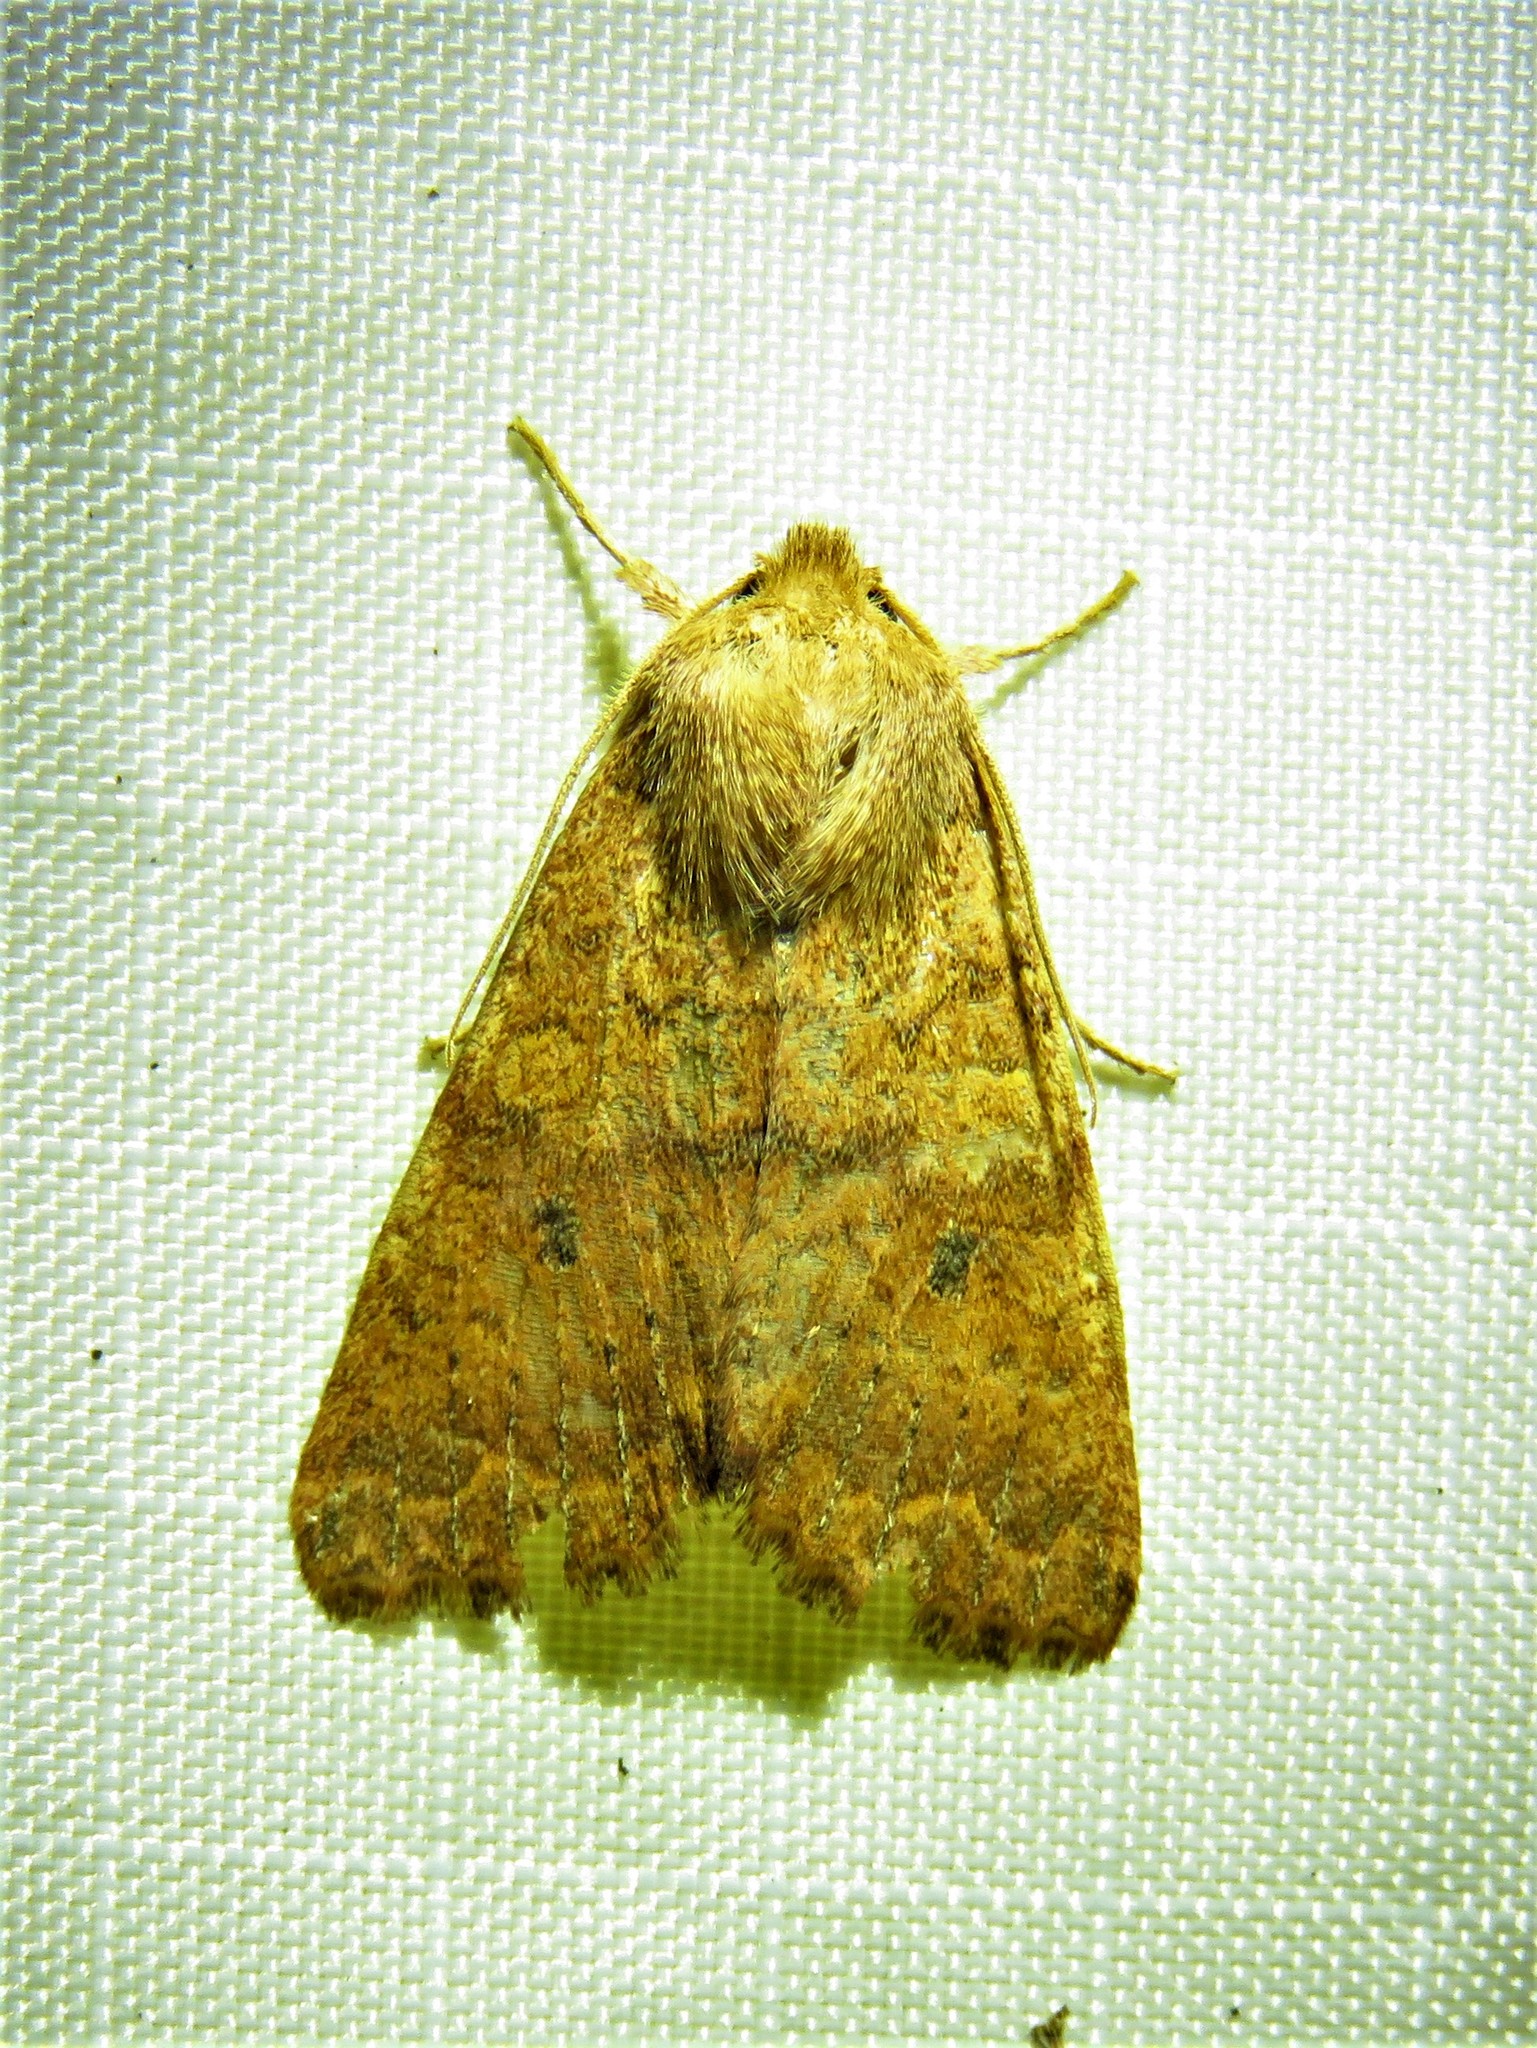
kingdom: Animalia
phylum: Arthropoda
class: Insecta
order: Lepidoptera
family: Noctuidae
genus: Agrochola
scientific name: Agrochola bicolorago
